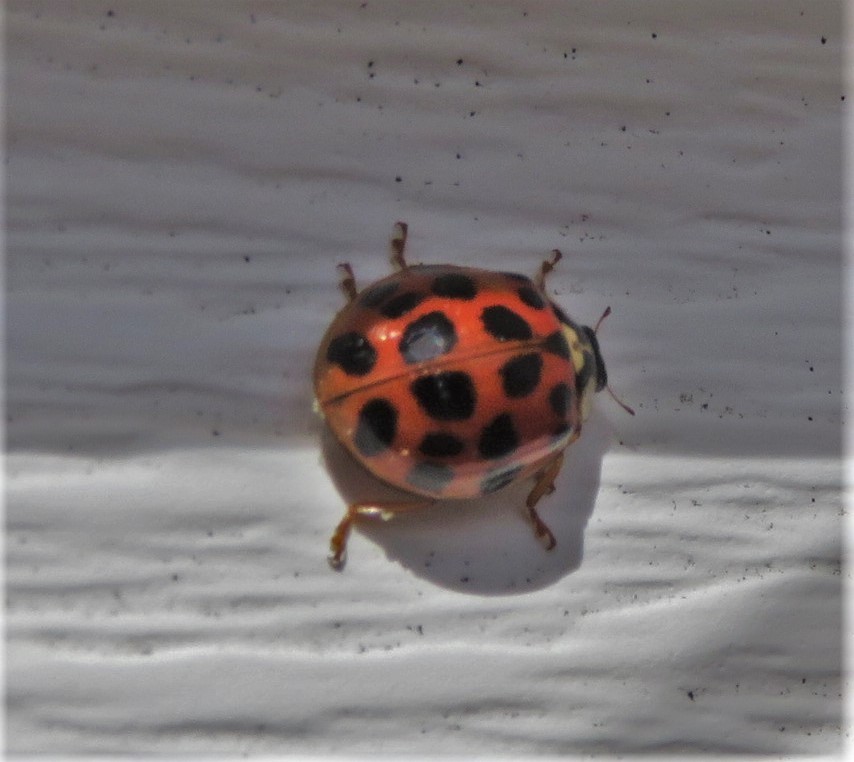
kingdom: Animalia
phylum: Arthropoda
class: Insecta
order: Coleoptera
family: Coccinellidae
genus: Harmonia
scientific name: Harmonia axyridis
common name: Harlequin ladybird
